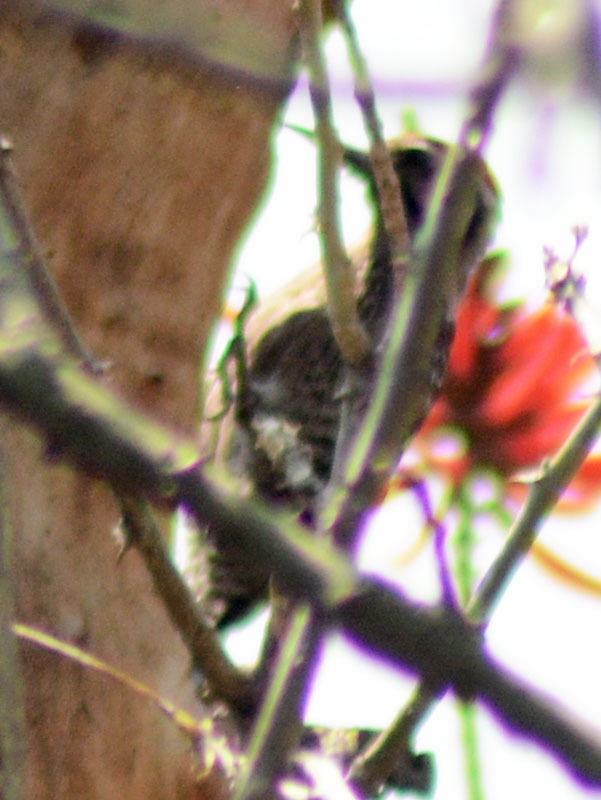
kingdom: Animalia
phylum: Chordata
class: Aves
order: Piciformes
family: Picidae
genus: Dryobates
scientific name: Dryobates scalaris
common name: Ladder-backed woodpecker
